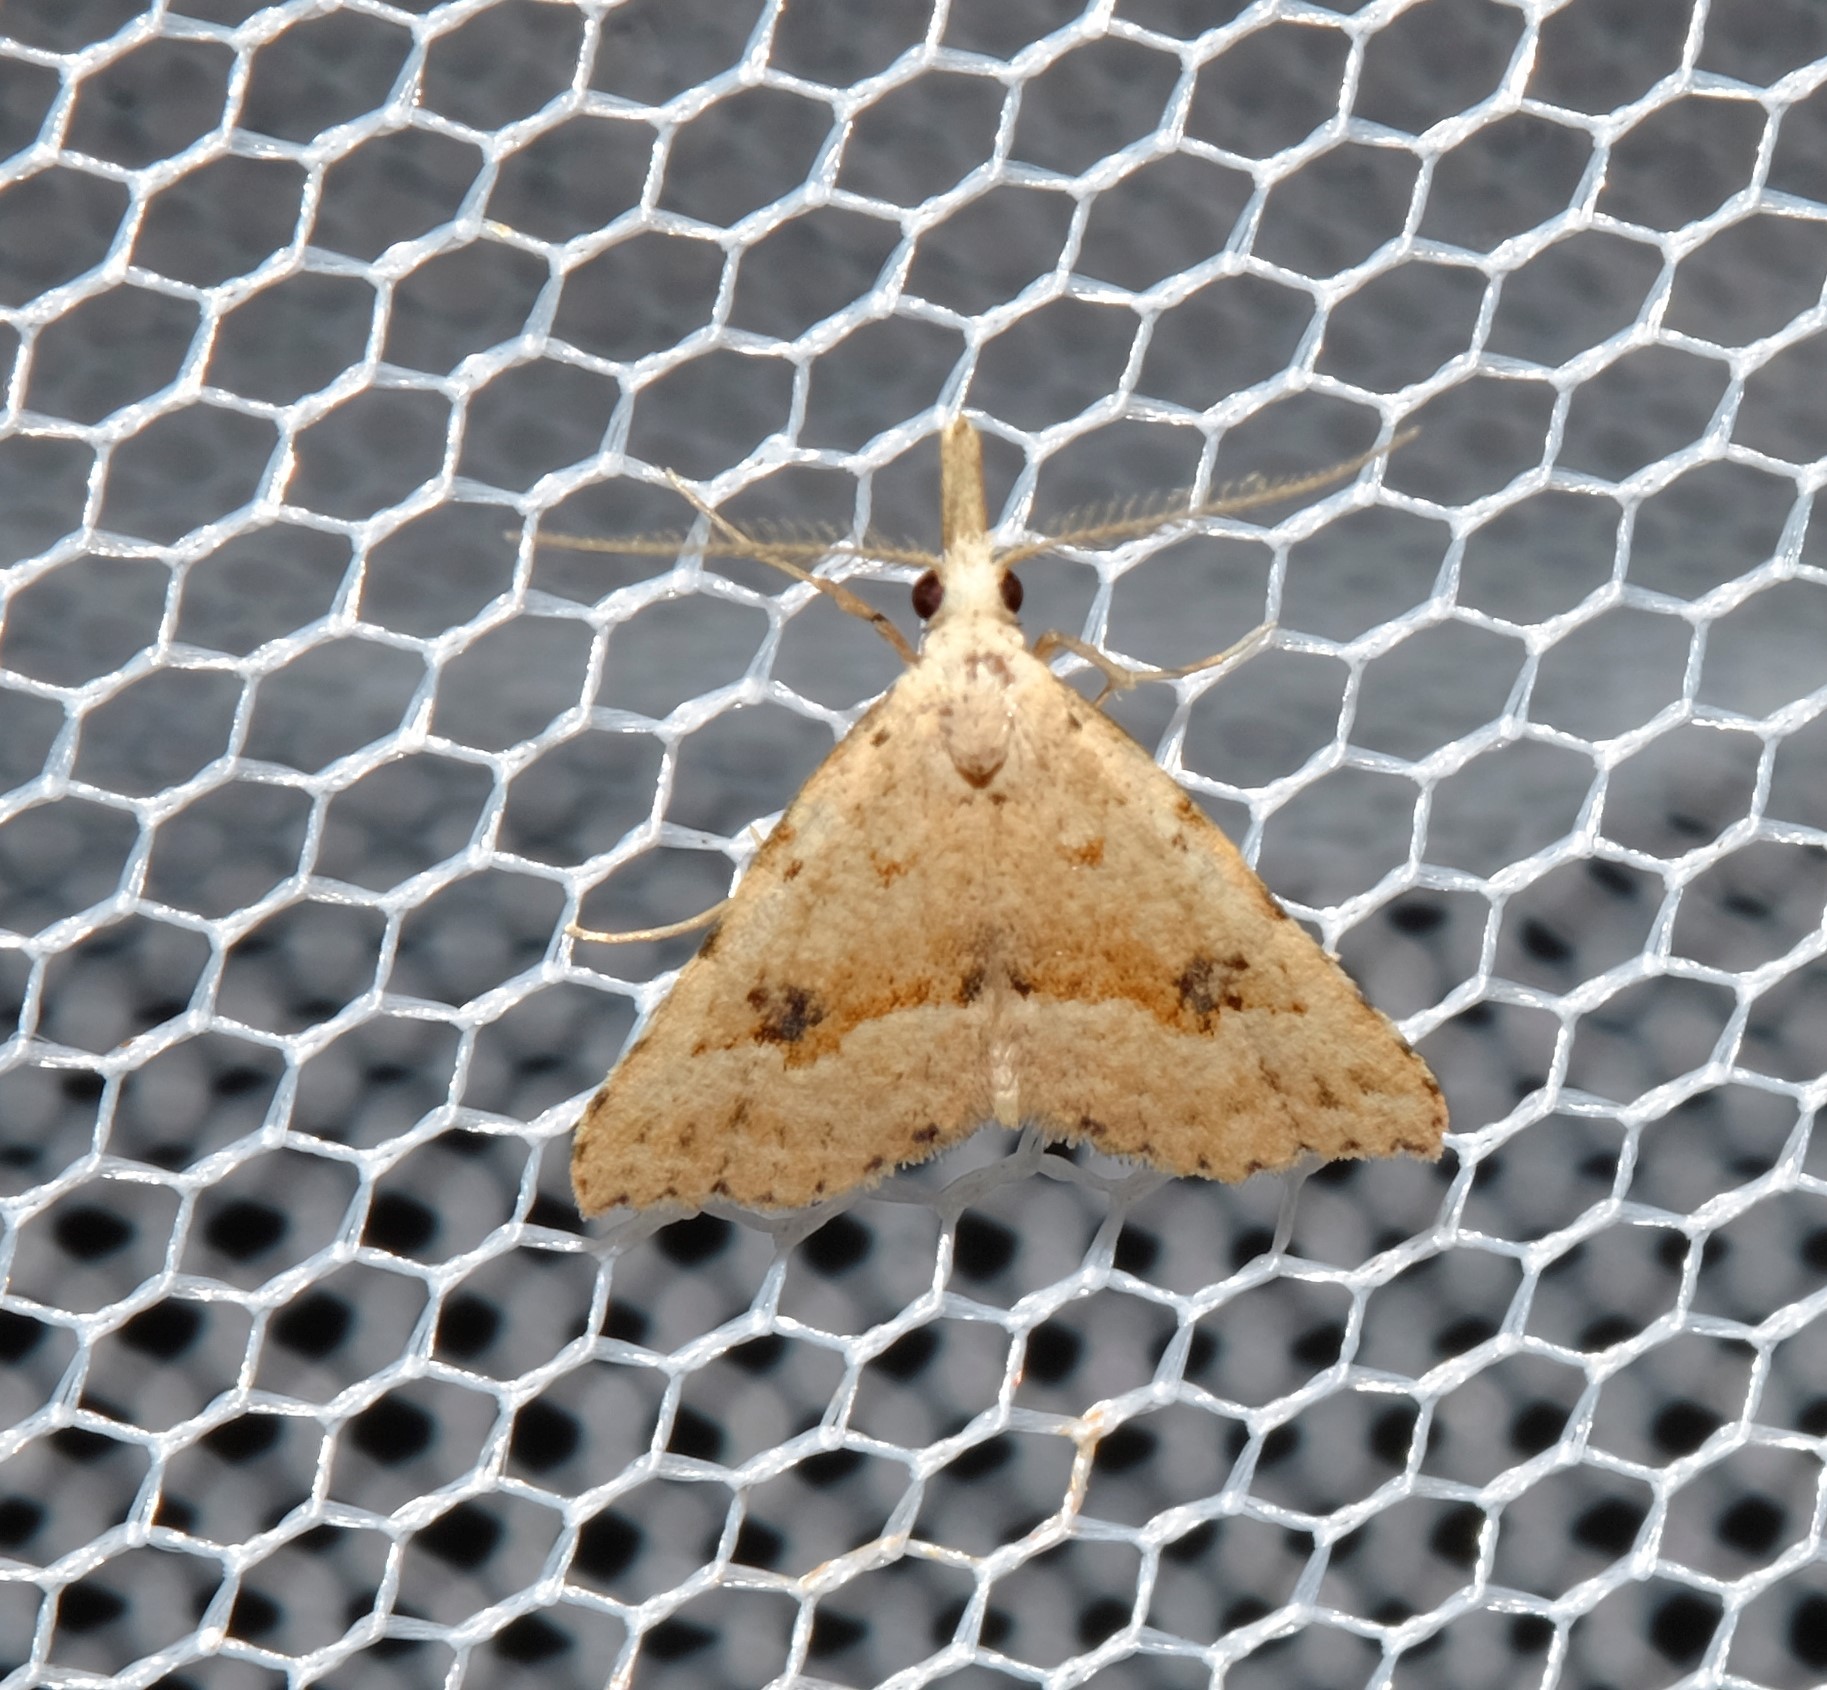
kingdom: Animalia
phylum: Arthropoda
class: Insecta
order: Lepidoptera
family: Erebidae
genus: Trigonistis
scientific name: Trigonistis asthenopa
